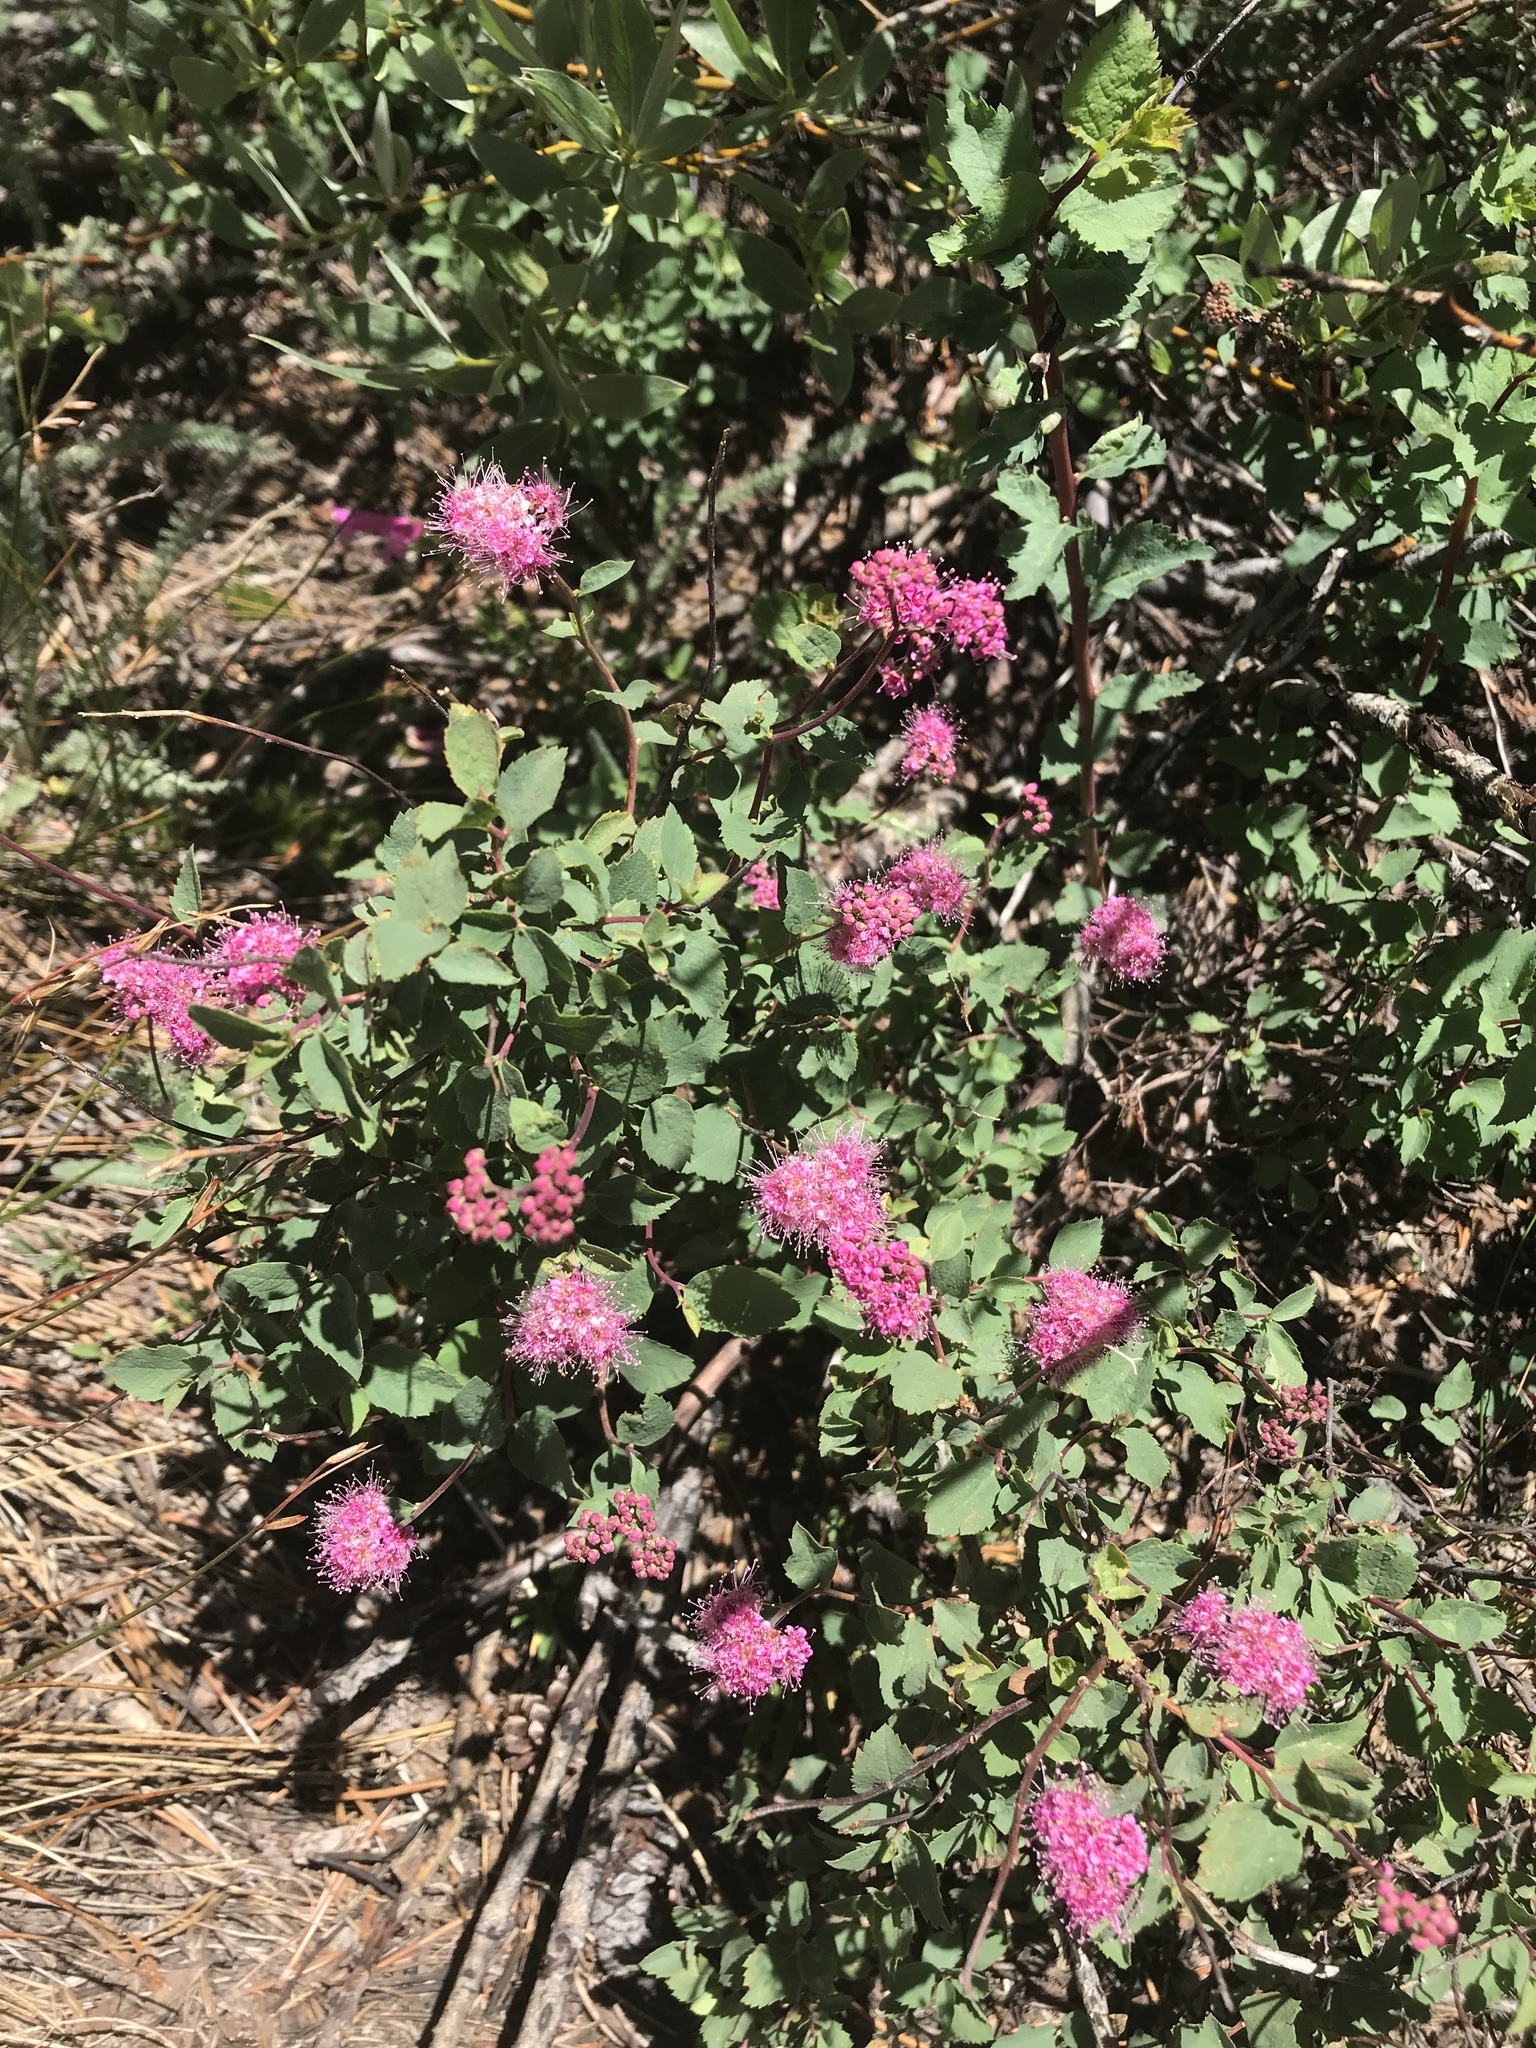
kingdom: Plantae
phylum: Tracheophyta
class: Magnoliopsida
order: Rosales
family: Rosaceae
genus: Spiraea
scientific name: Spiraea splendens
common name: Subalpine meadowsweet
